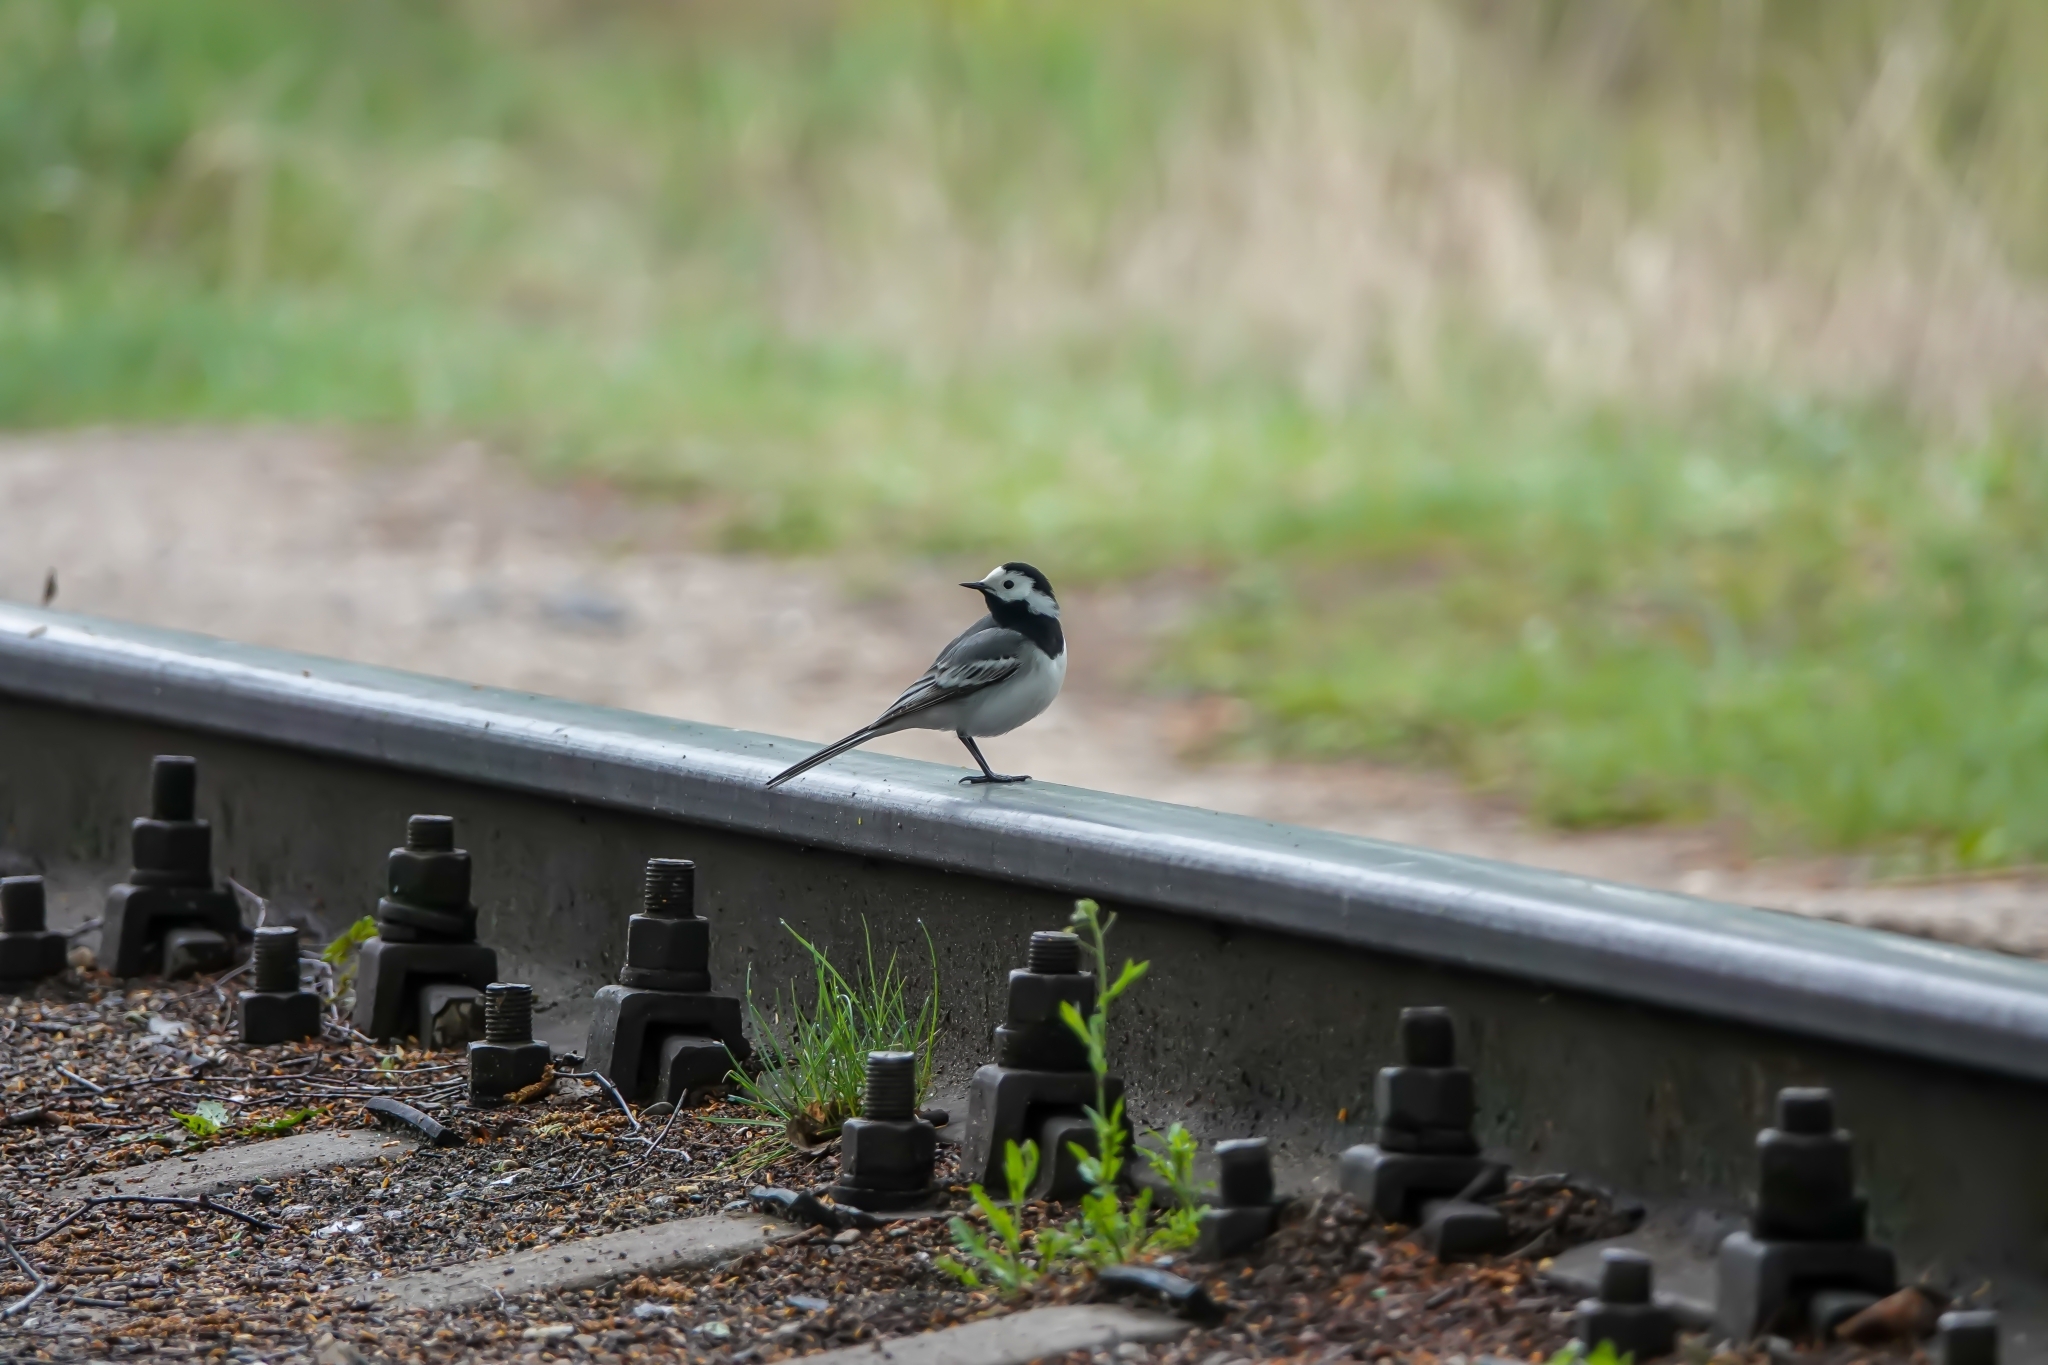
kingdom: Animalia
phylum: Chordata
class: Aves
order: Passeriformes
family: Motacillidae
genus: Motacilla
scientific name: Motacilla alba
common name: White wagtail
